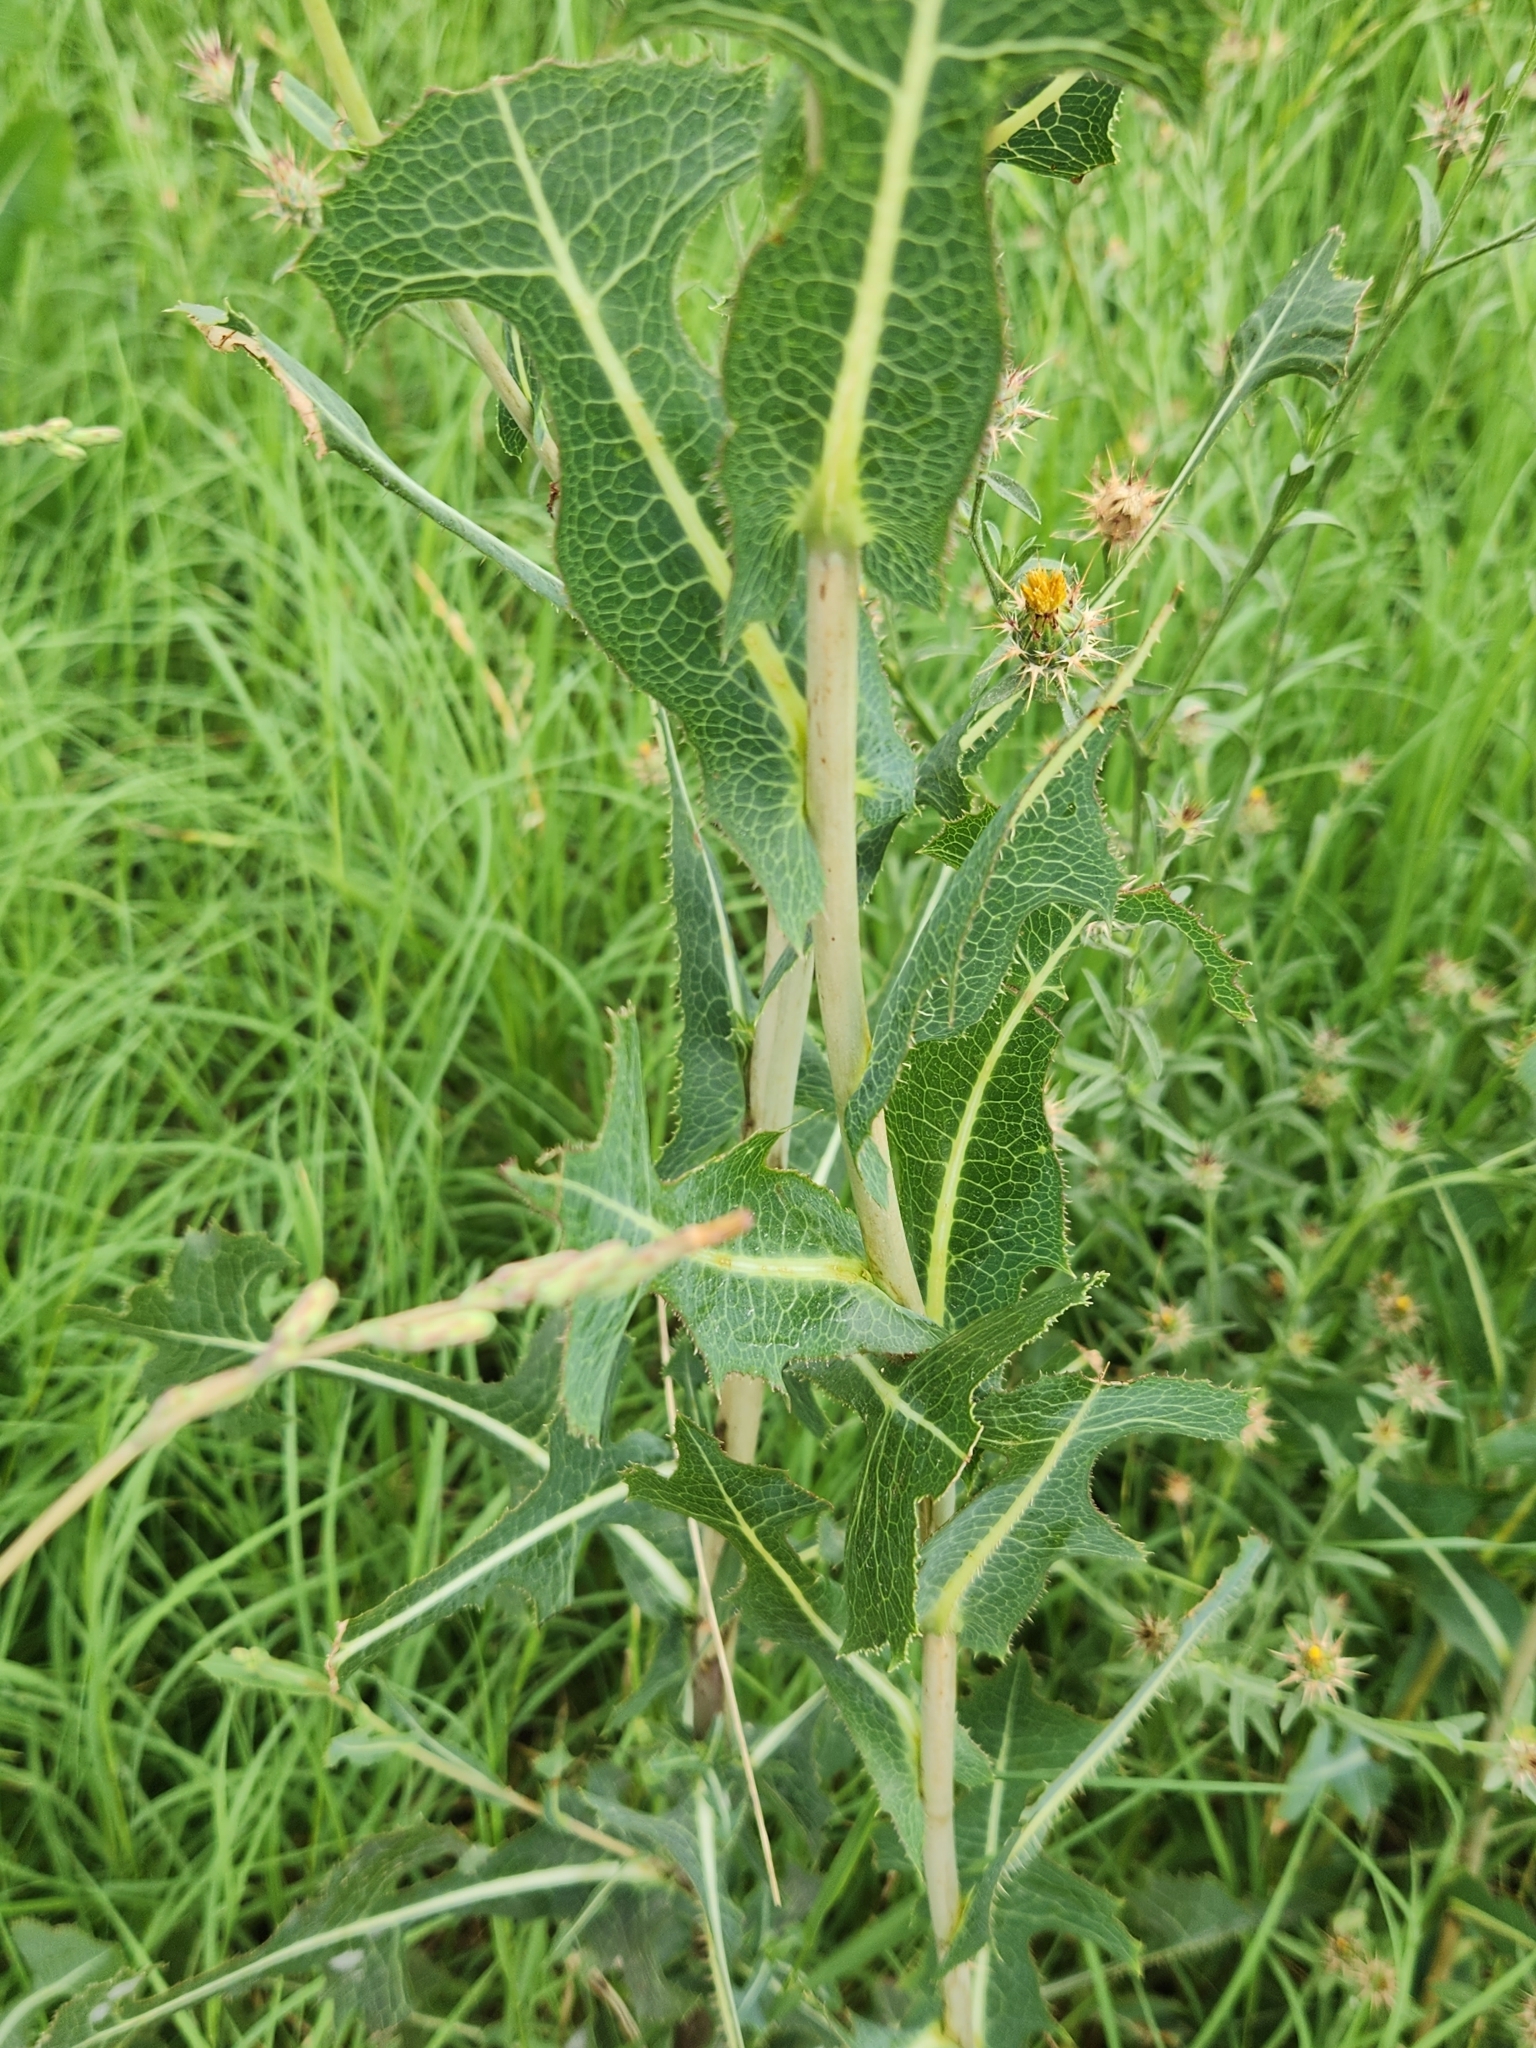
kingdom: Plantae
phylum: Tracheophyta
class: Magnoliopsida
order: Asterales
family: Asteraceae
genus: Lactuca
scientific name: Lactuca serriola
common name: Prickly lettuce
